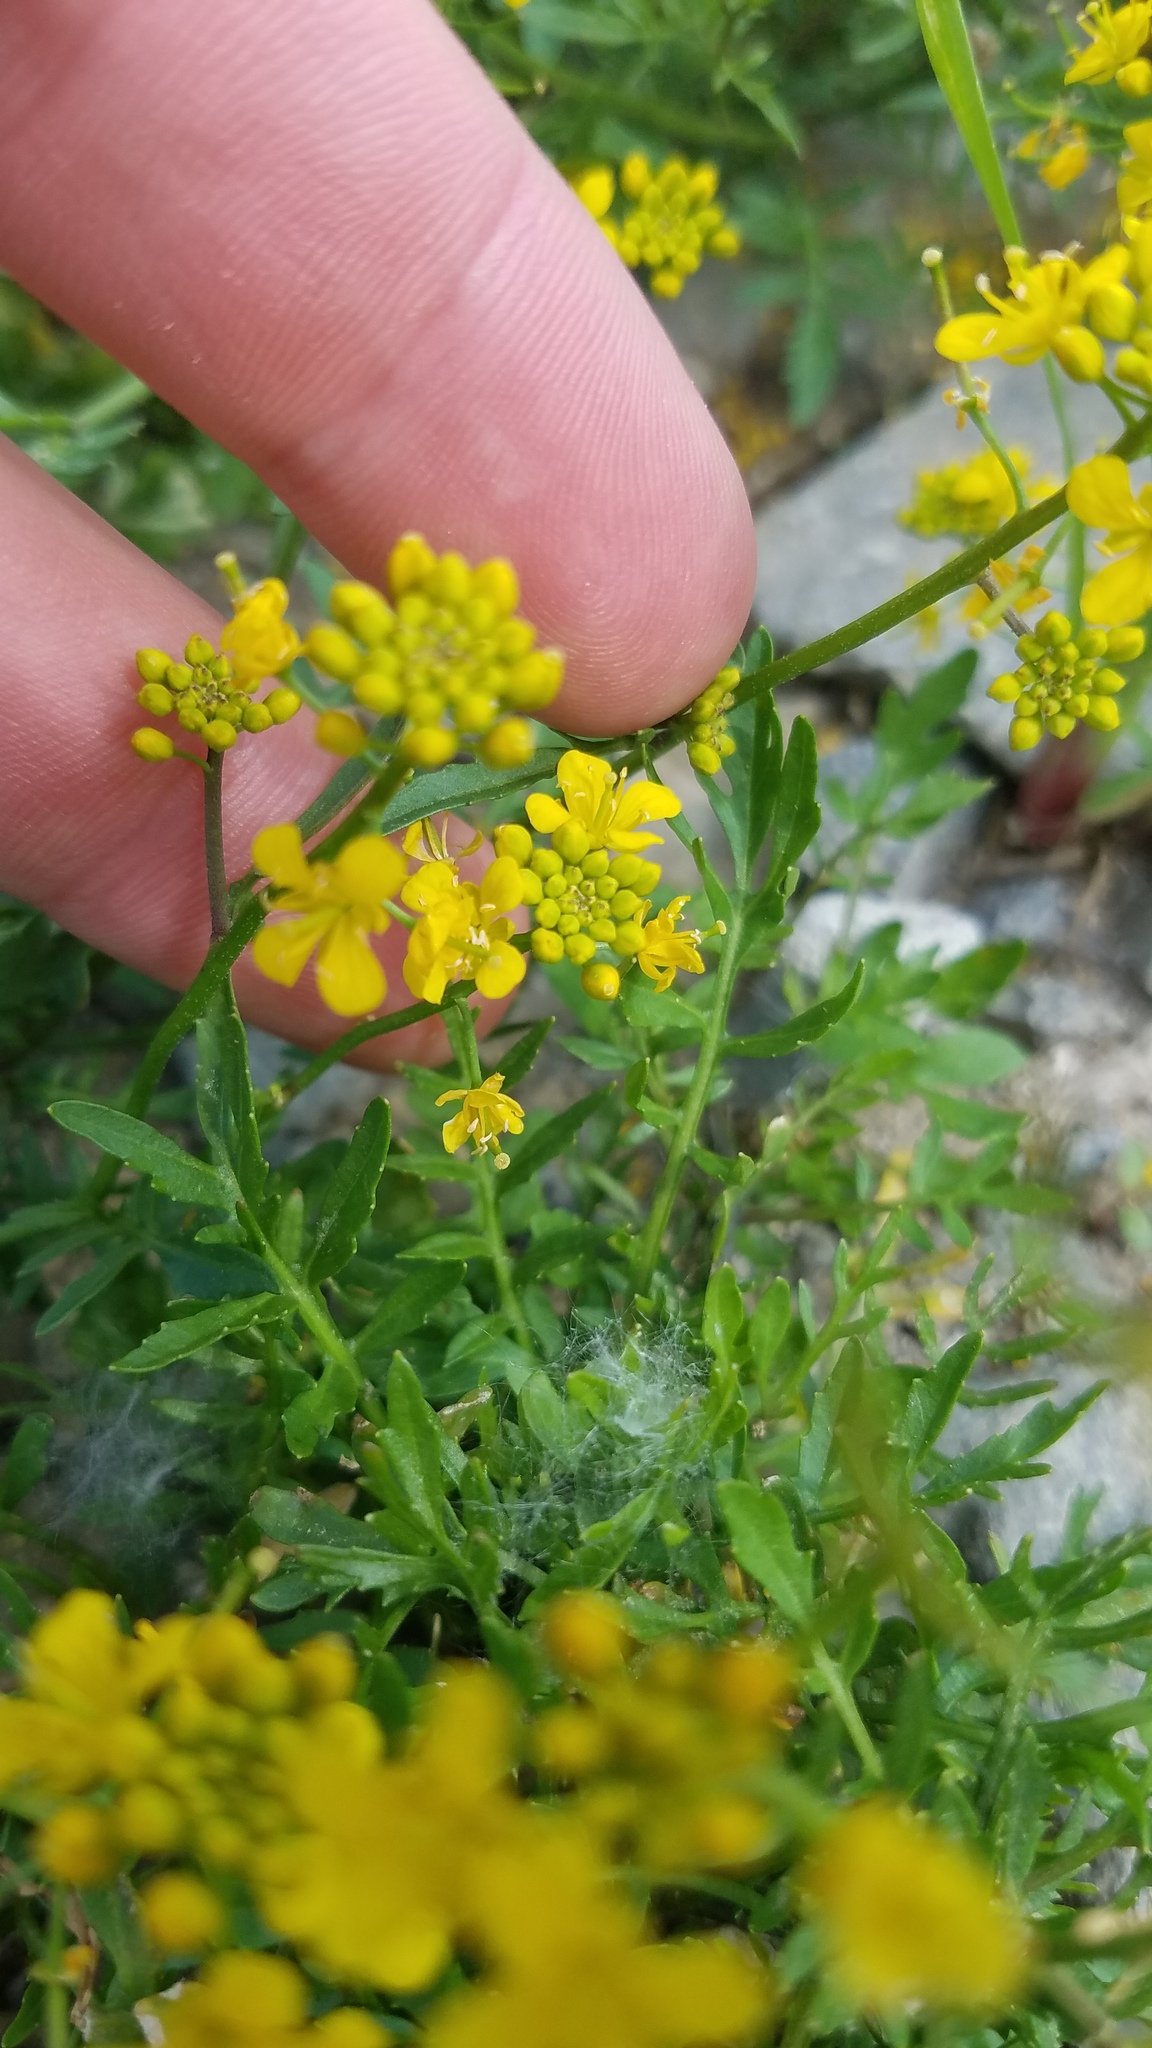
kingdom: Plantae
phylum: Tracheophyta
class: Magnoliopsida
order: Brassicales
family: Brassicaceae
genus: Rorippa
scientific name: Rorippa sylvestris
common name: Creeping yellowcress
